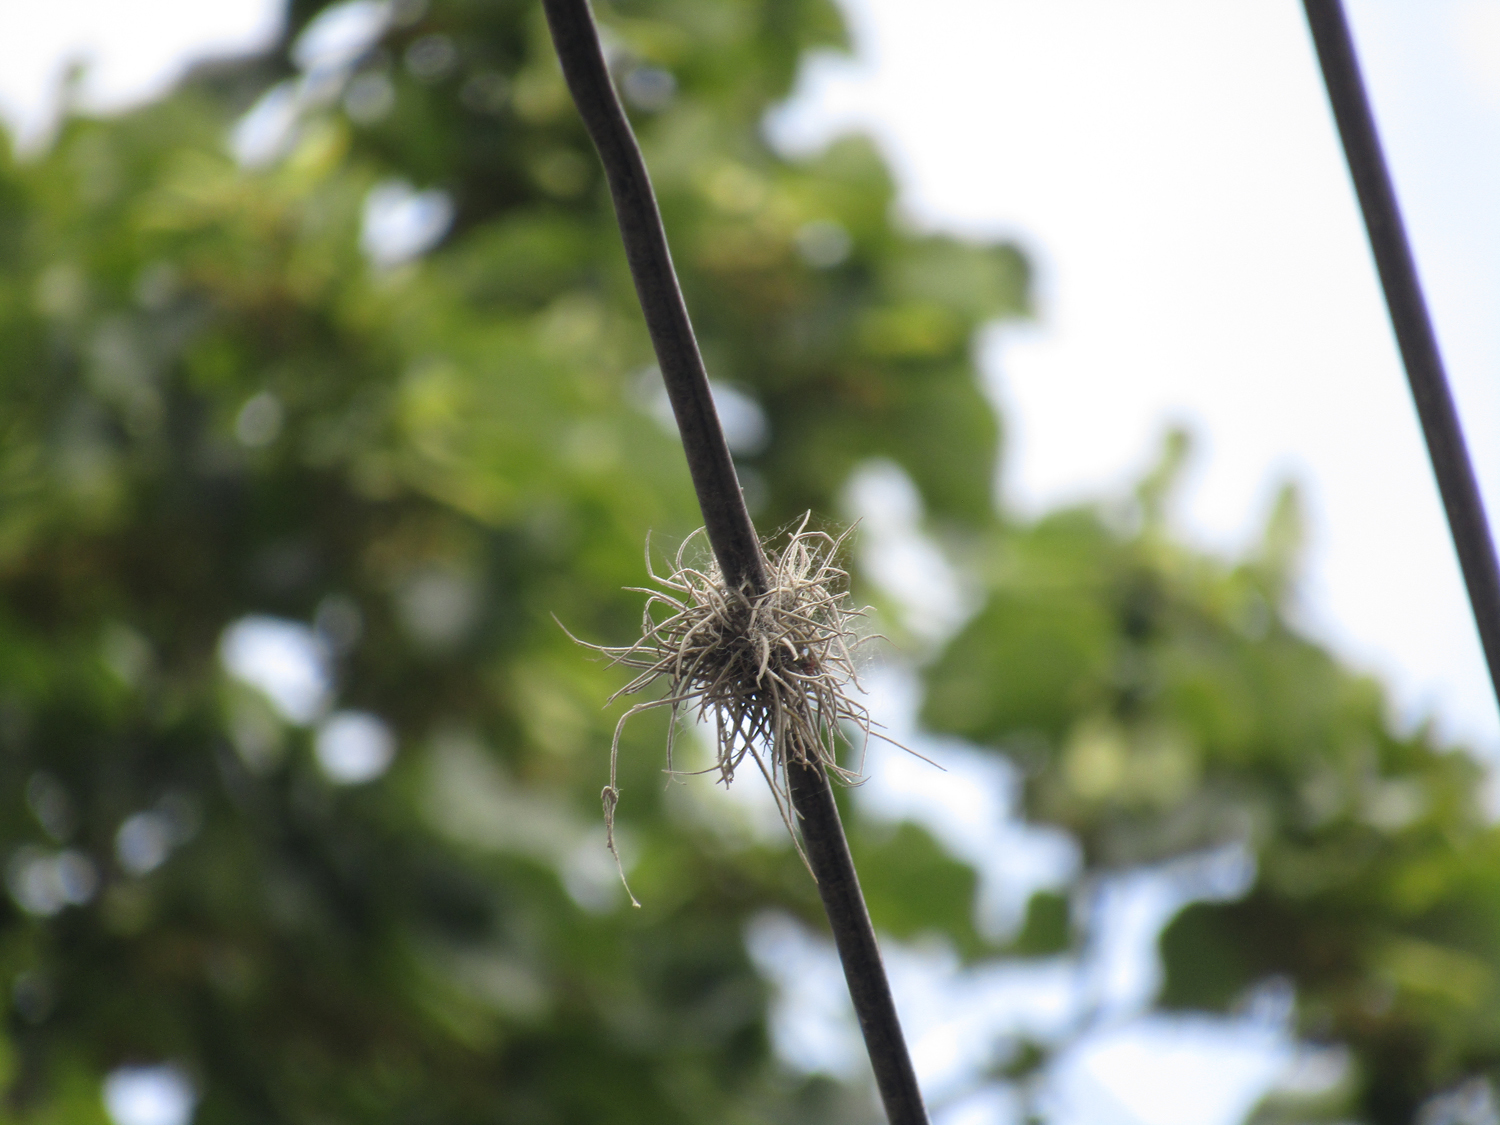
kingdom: Plantae
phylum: Tracheophyta
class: Liliopsida
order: Poales
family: Bromeliaceae
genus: Tillandsia
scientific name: Tillandsia recurvata
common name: Small ballmoss
